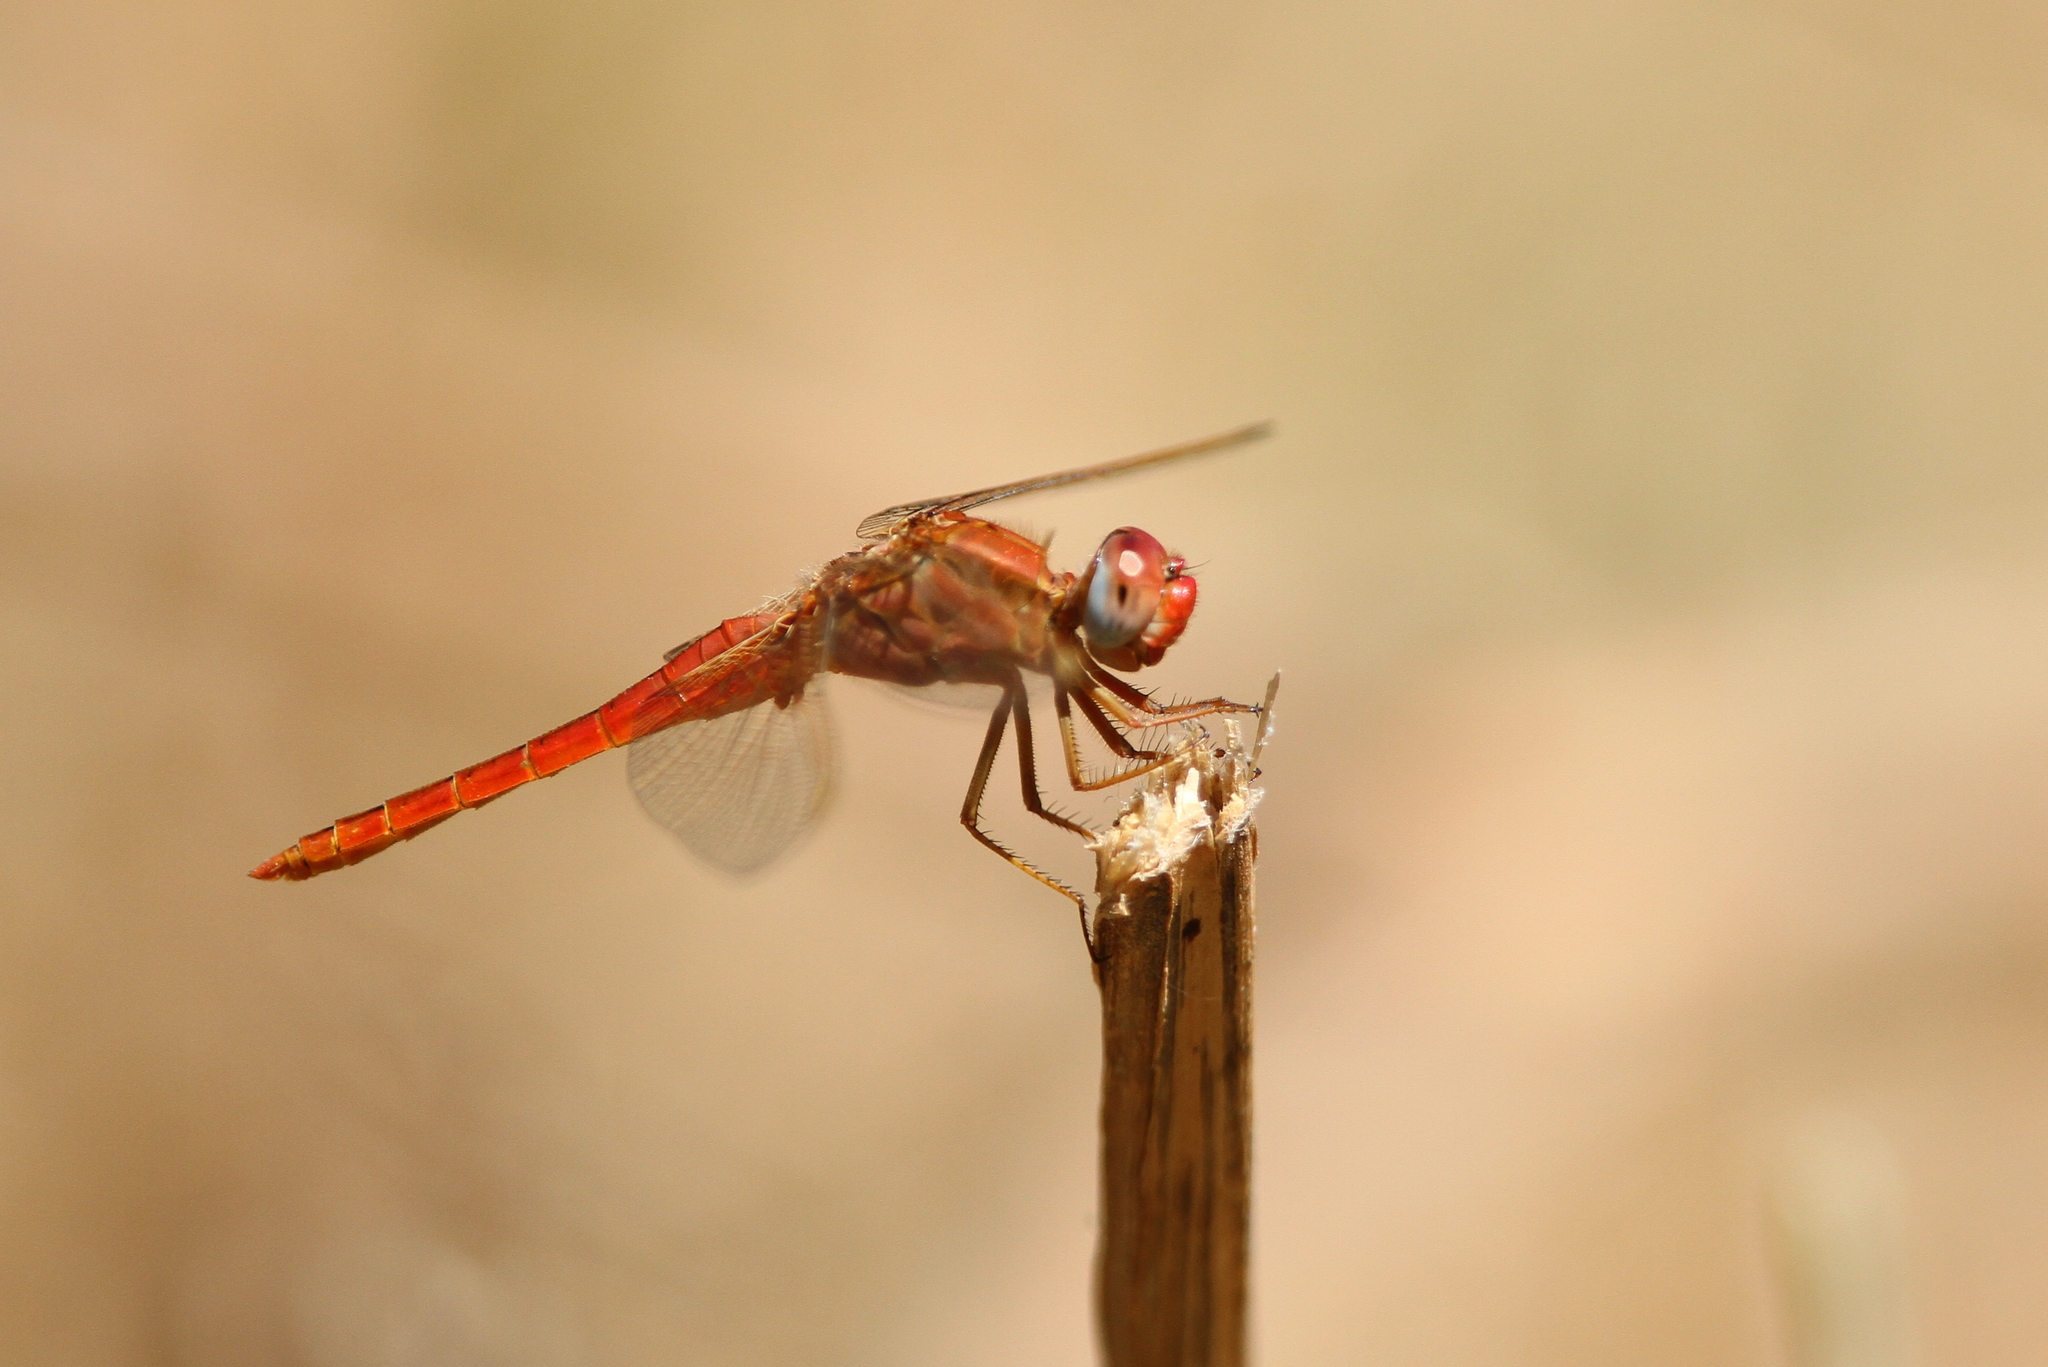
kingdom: Animalia
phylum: Arthropoda
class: Insecta
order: Odonata
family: Libellulidae
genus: Crocothemis
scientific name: Crocothemis erythraea
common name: Scarlet dragonfly
